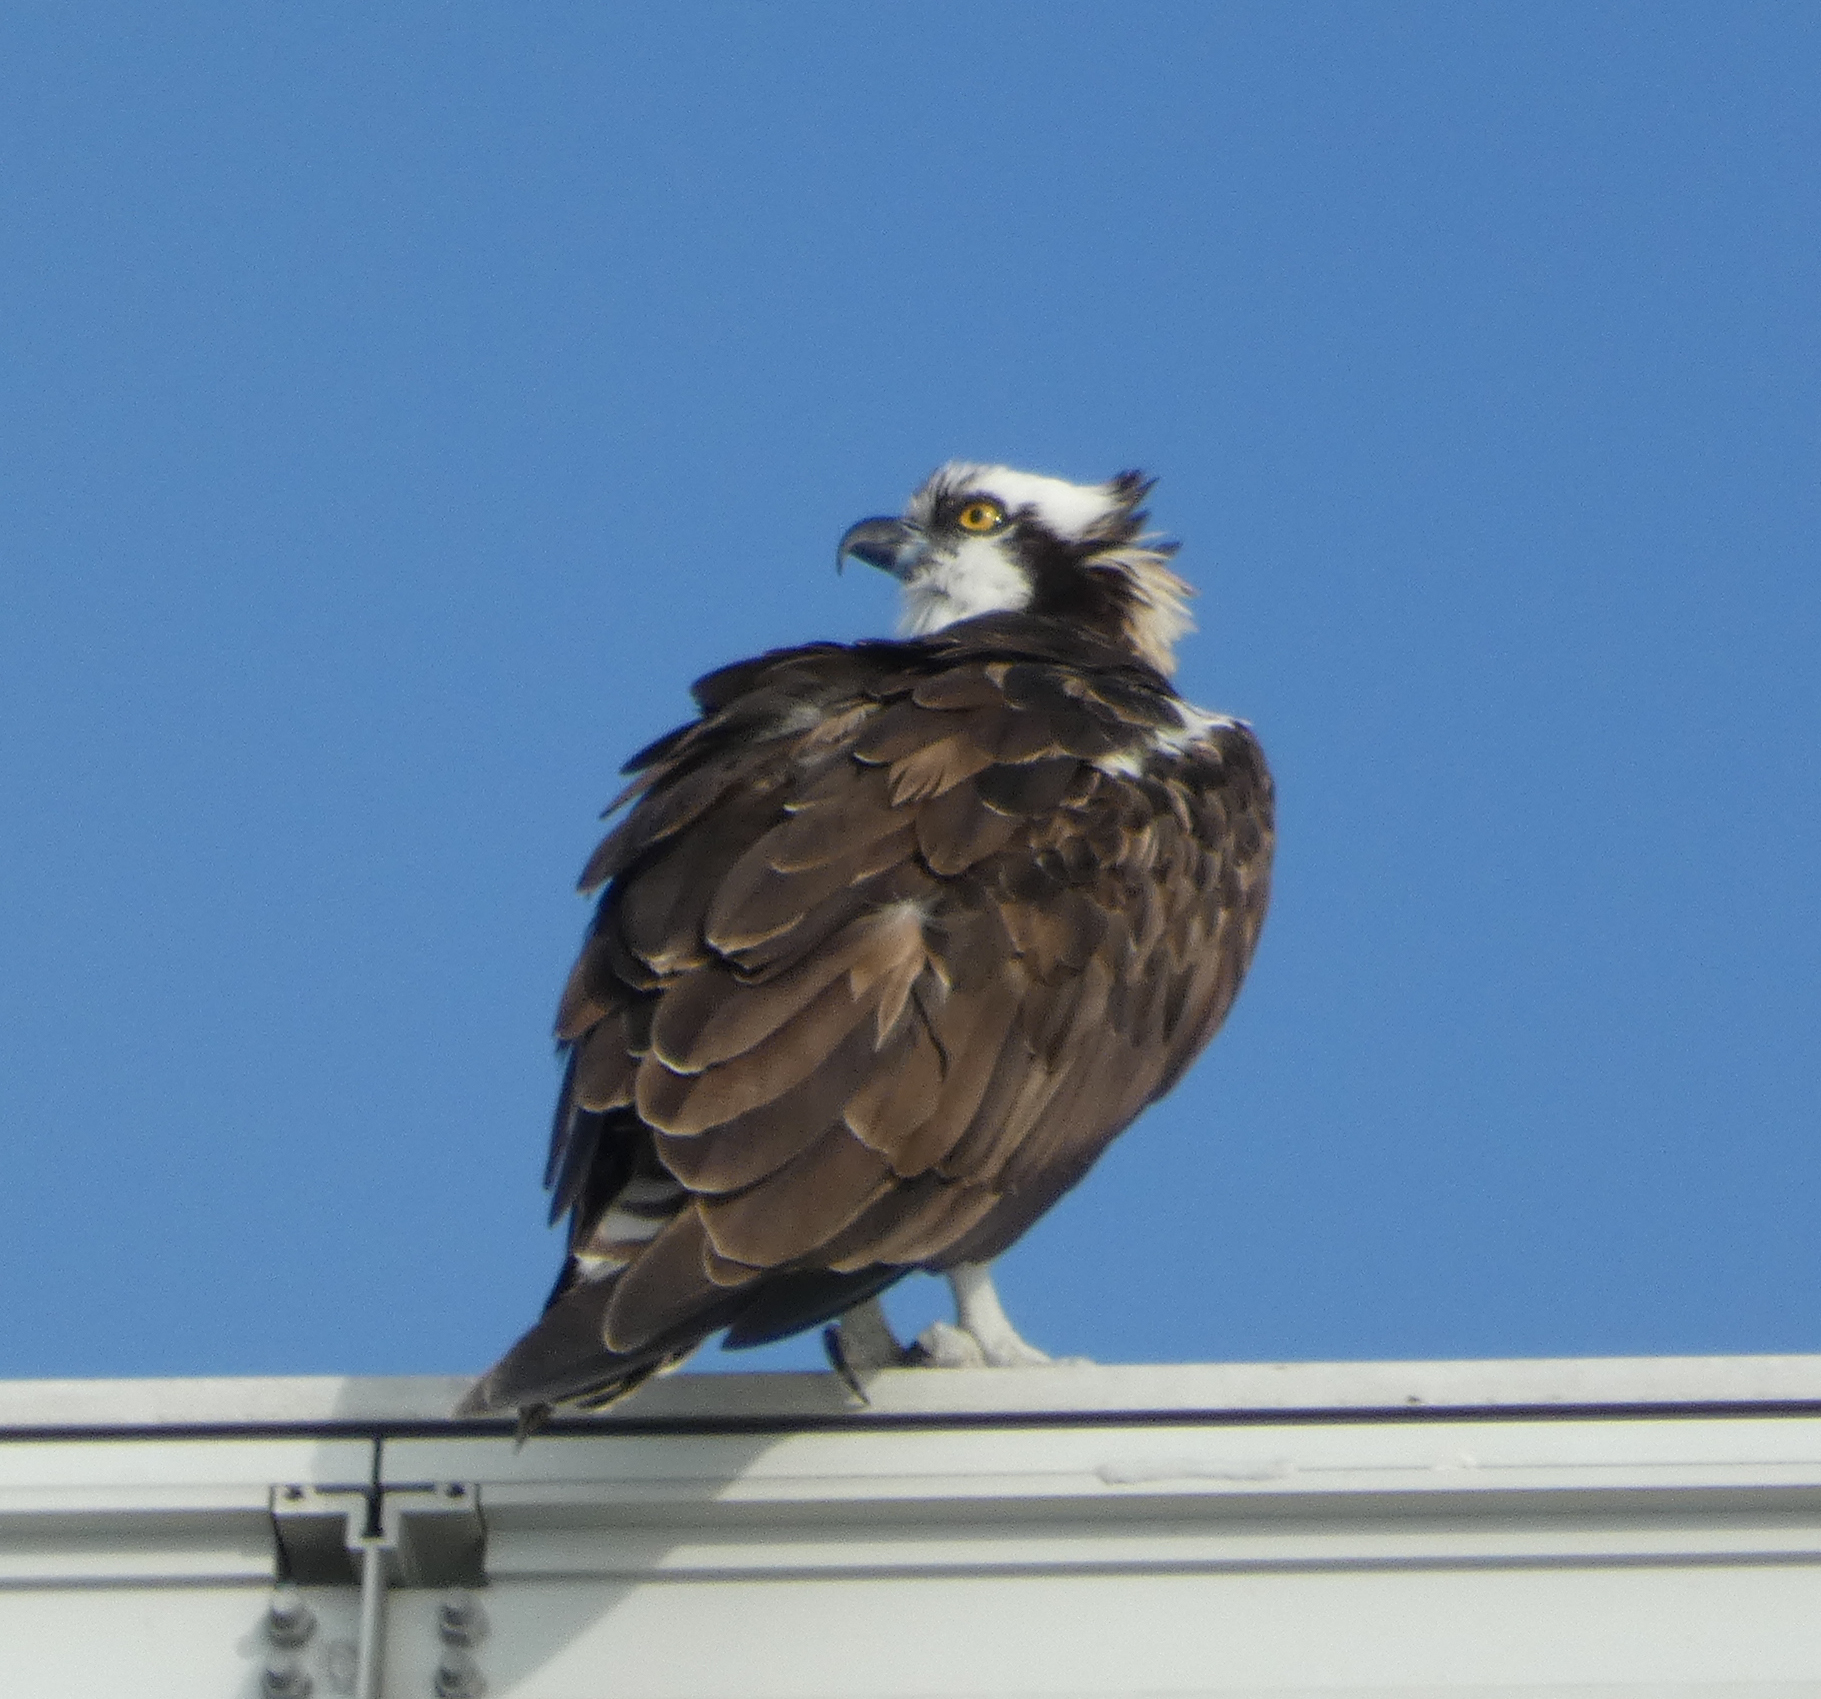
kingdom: Animalia
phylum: Chordata
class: Aves
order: Accipitriformes
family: Pandionidae
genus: Pandion
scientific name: Pandion haliaetus
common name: Osprey
